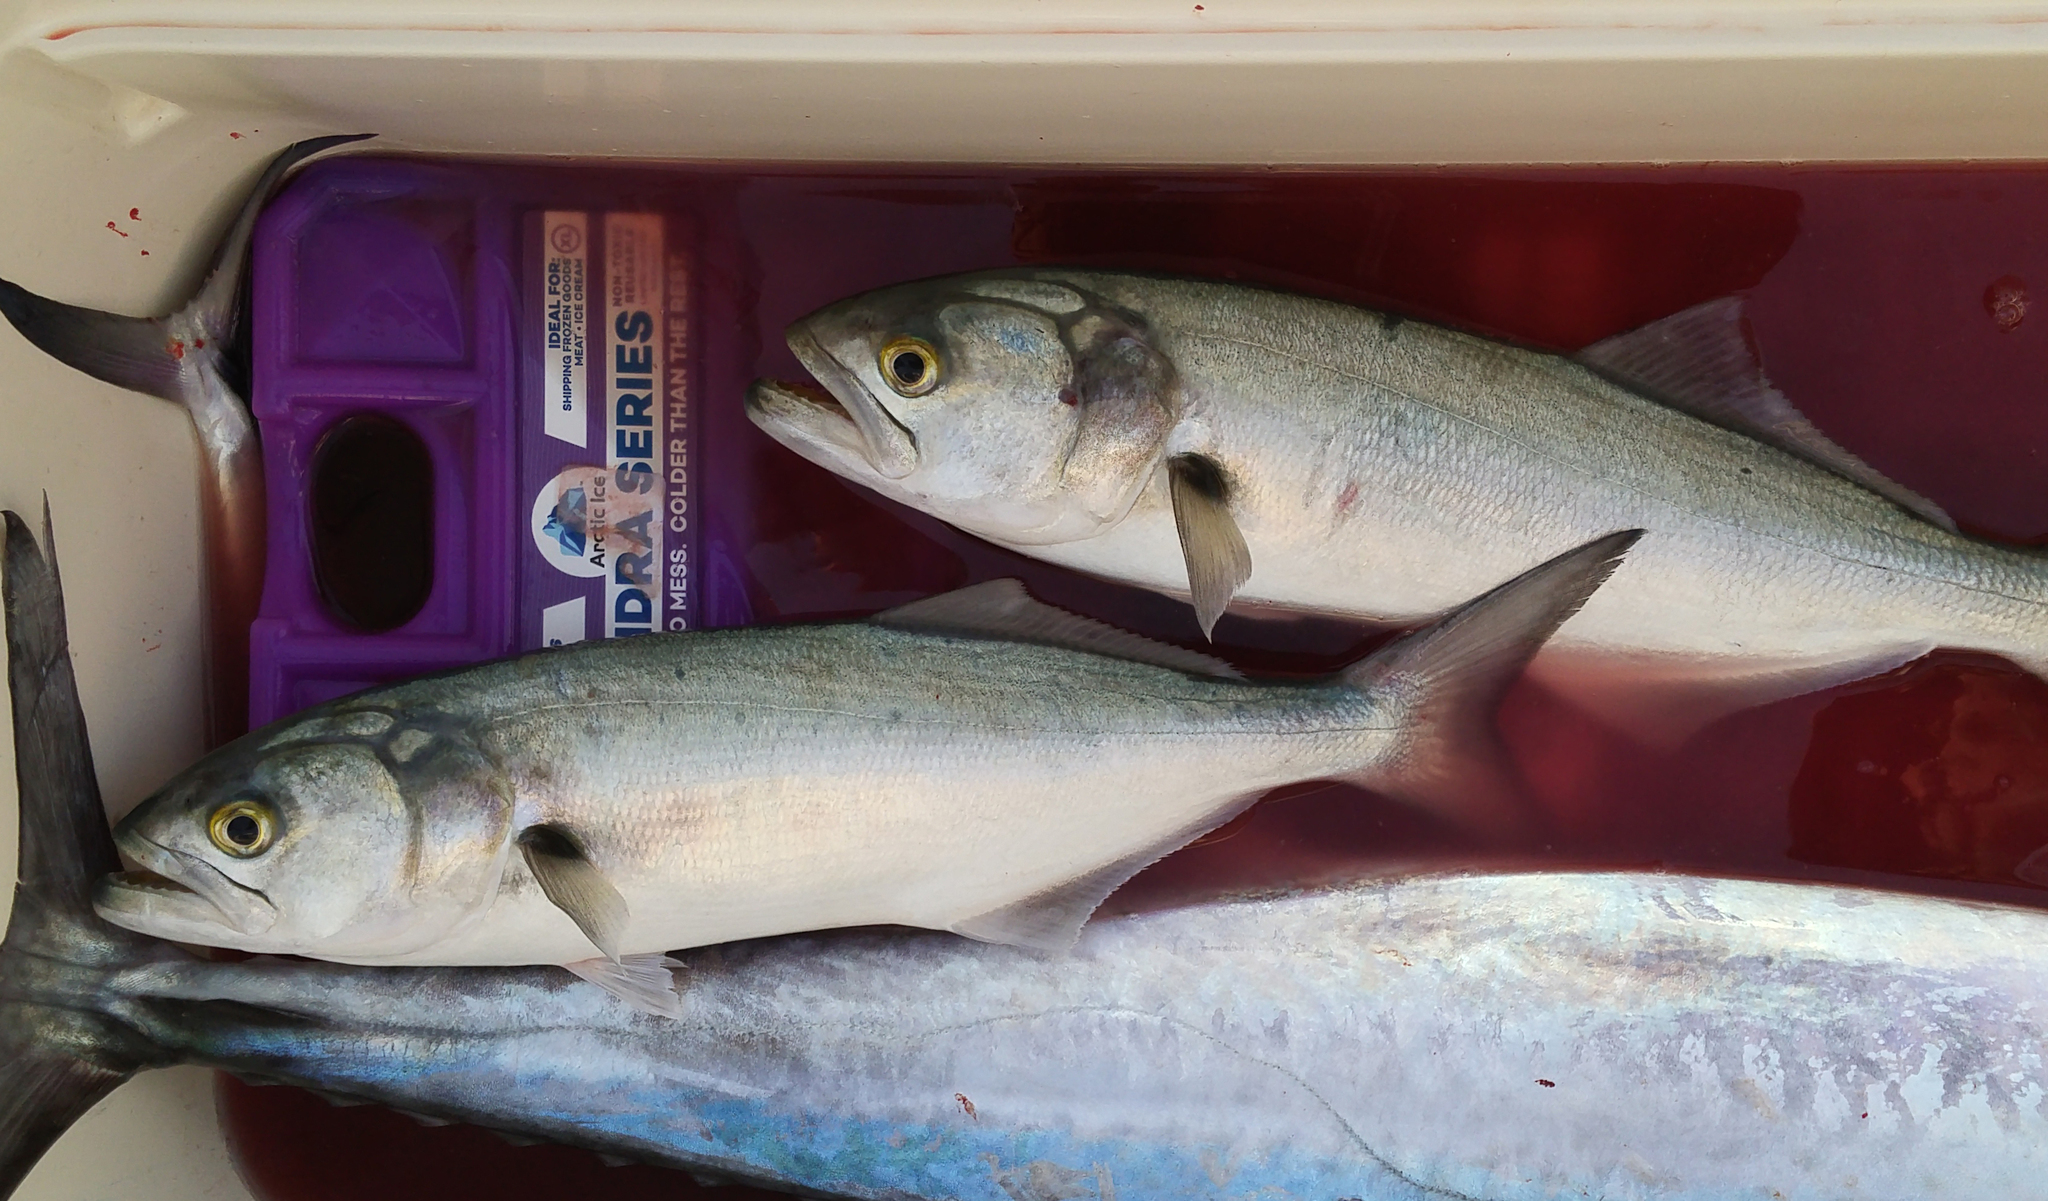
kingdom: Animalia
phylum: Chordata
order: Perciformes
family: Pomatomidae
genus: Pomatomus
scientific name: Pomatomus saltatrix
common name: Bluefish
